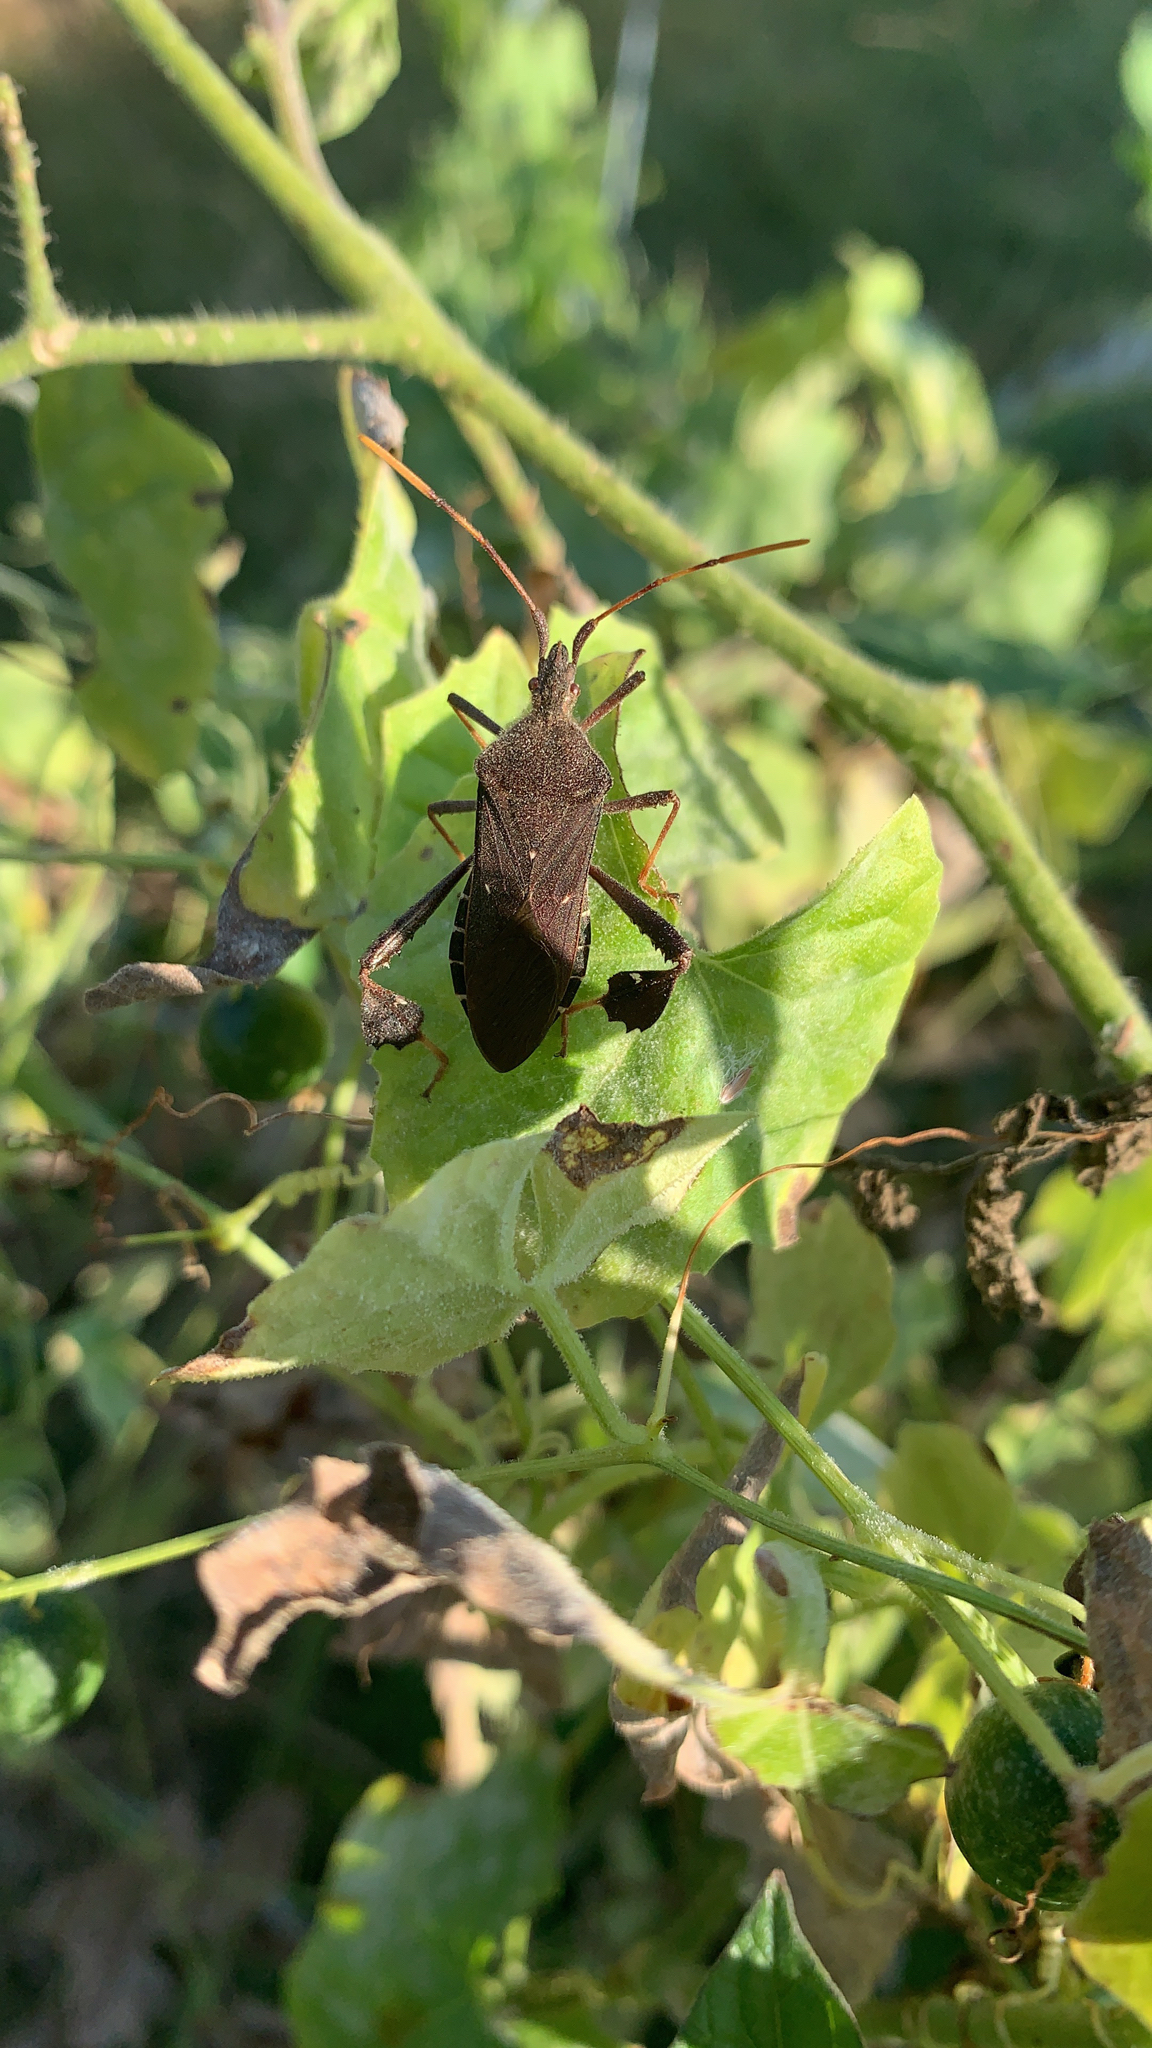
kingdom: Animalia
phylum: Arthropoda
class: Insecta
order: Hemiptera
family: Coreidae
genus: Leptoglossus
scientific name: Leptoglossus oppositus
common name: Northern leaf-footed bug
